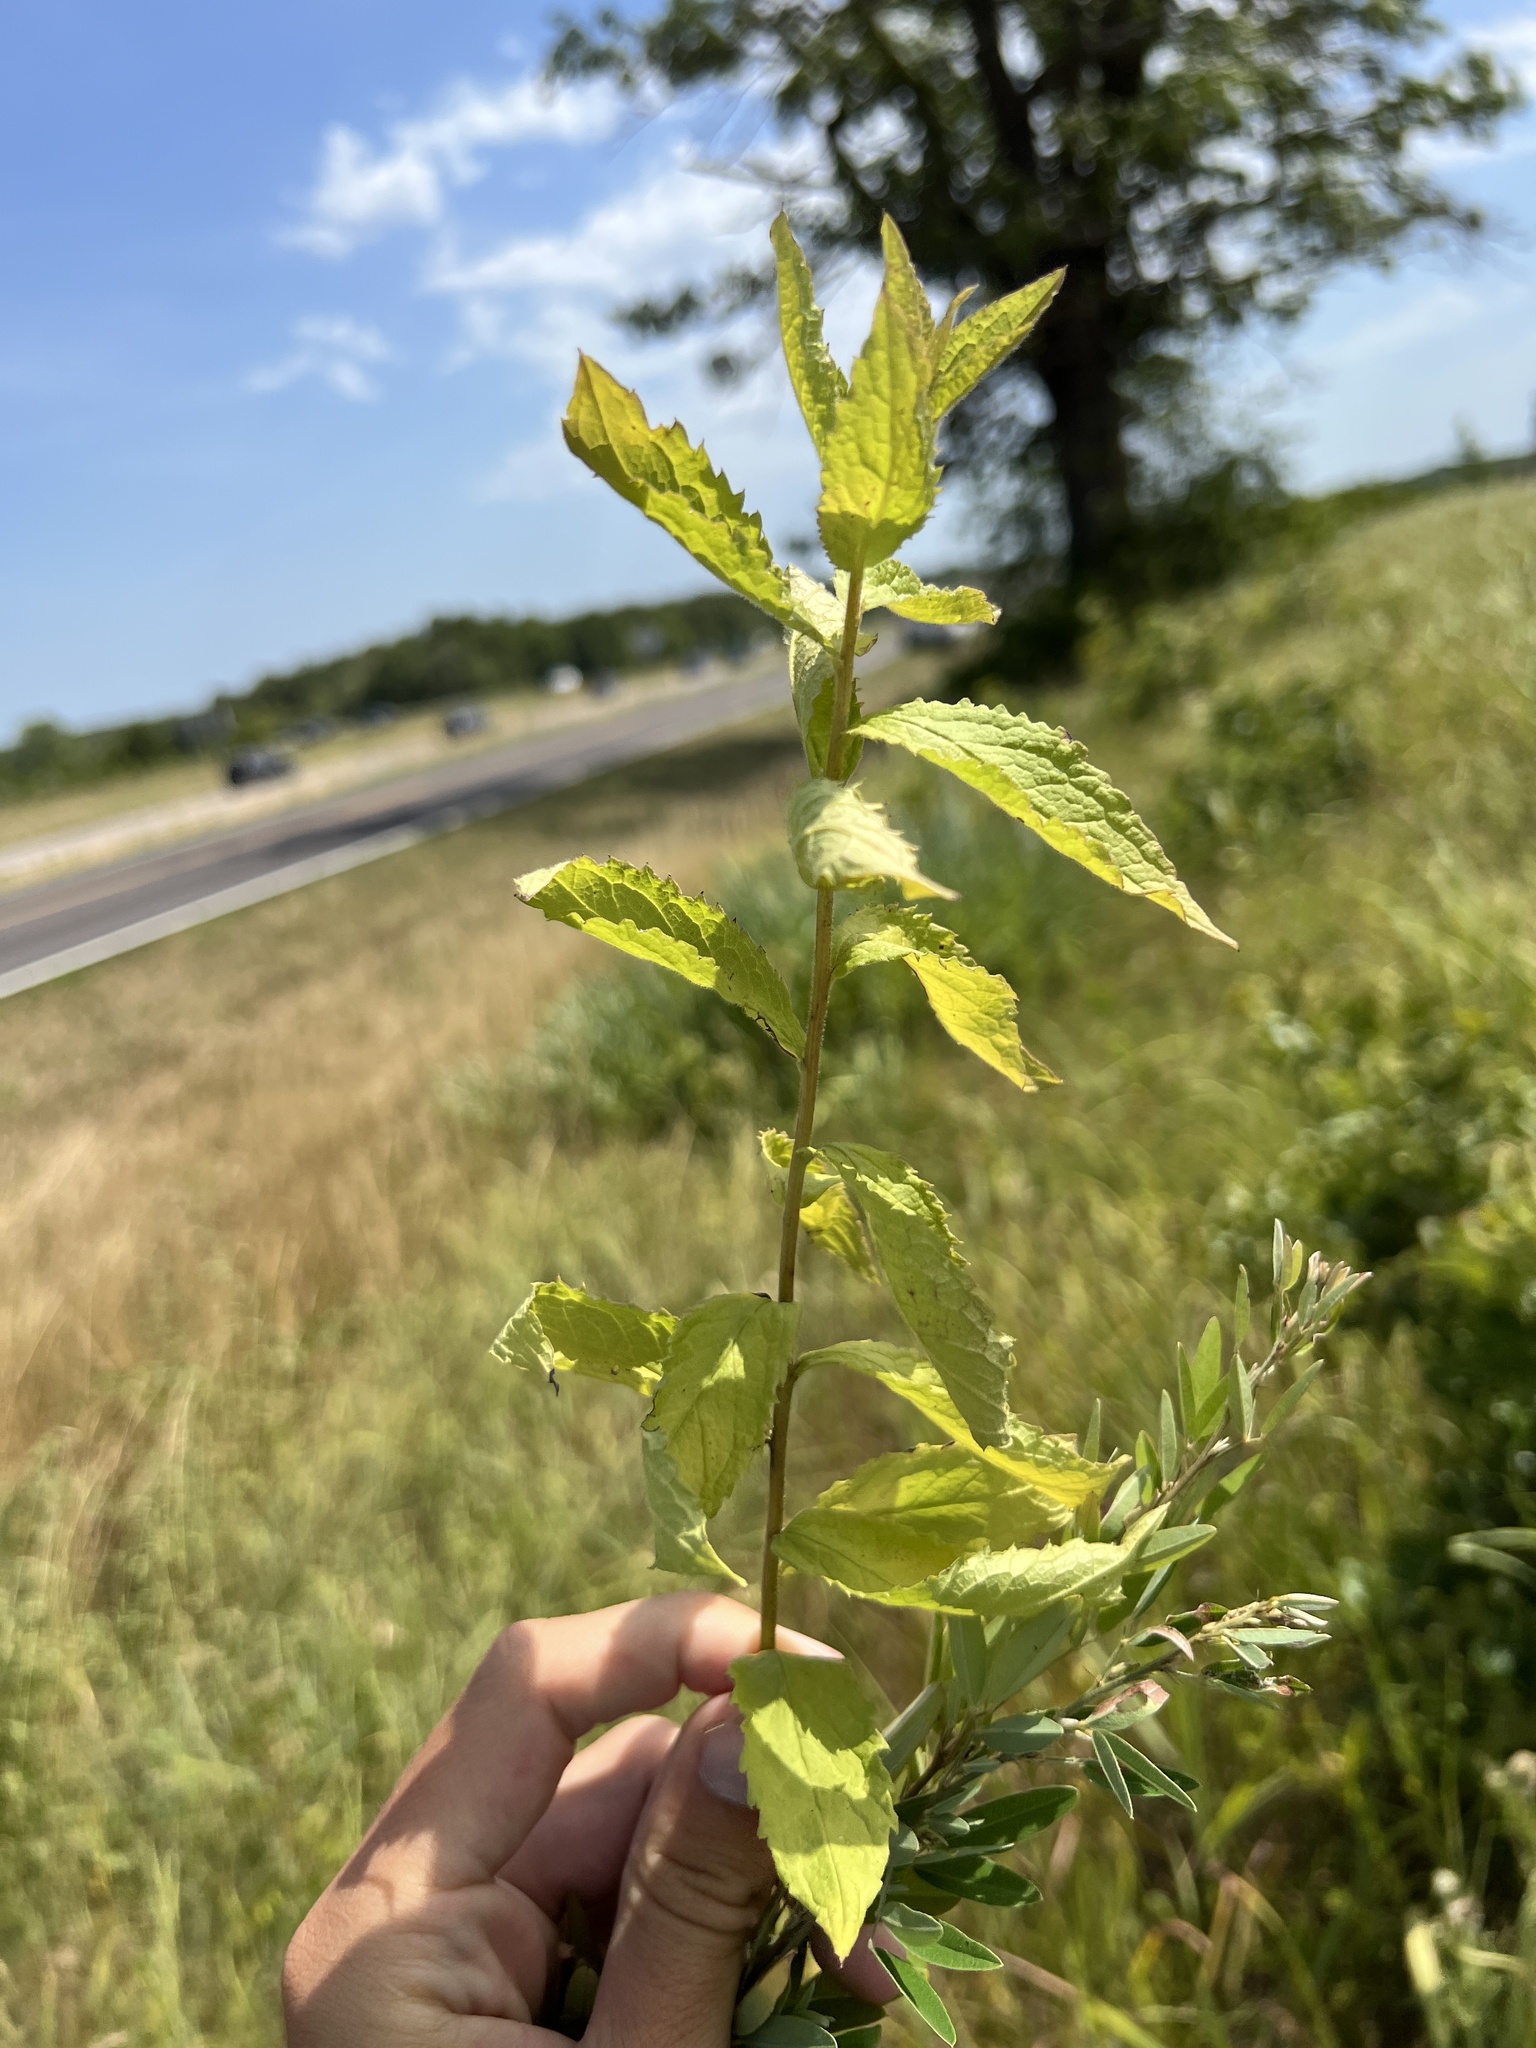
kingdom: Plantae
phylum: Tracheophyta
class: Magnoliopsida
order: Asterales
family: Asteraceae
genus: Solidago
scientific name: Solidago rugosa
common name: Rough-stemmed goldenrod
